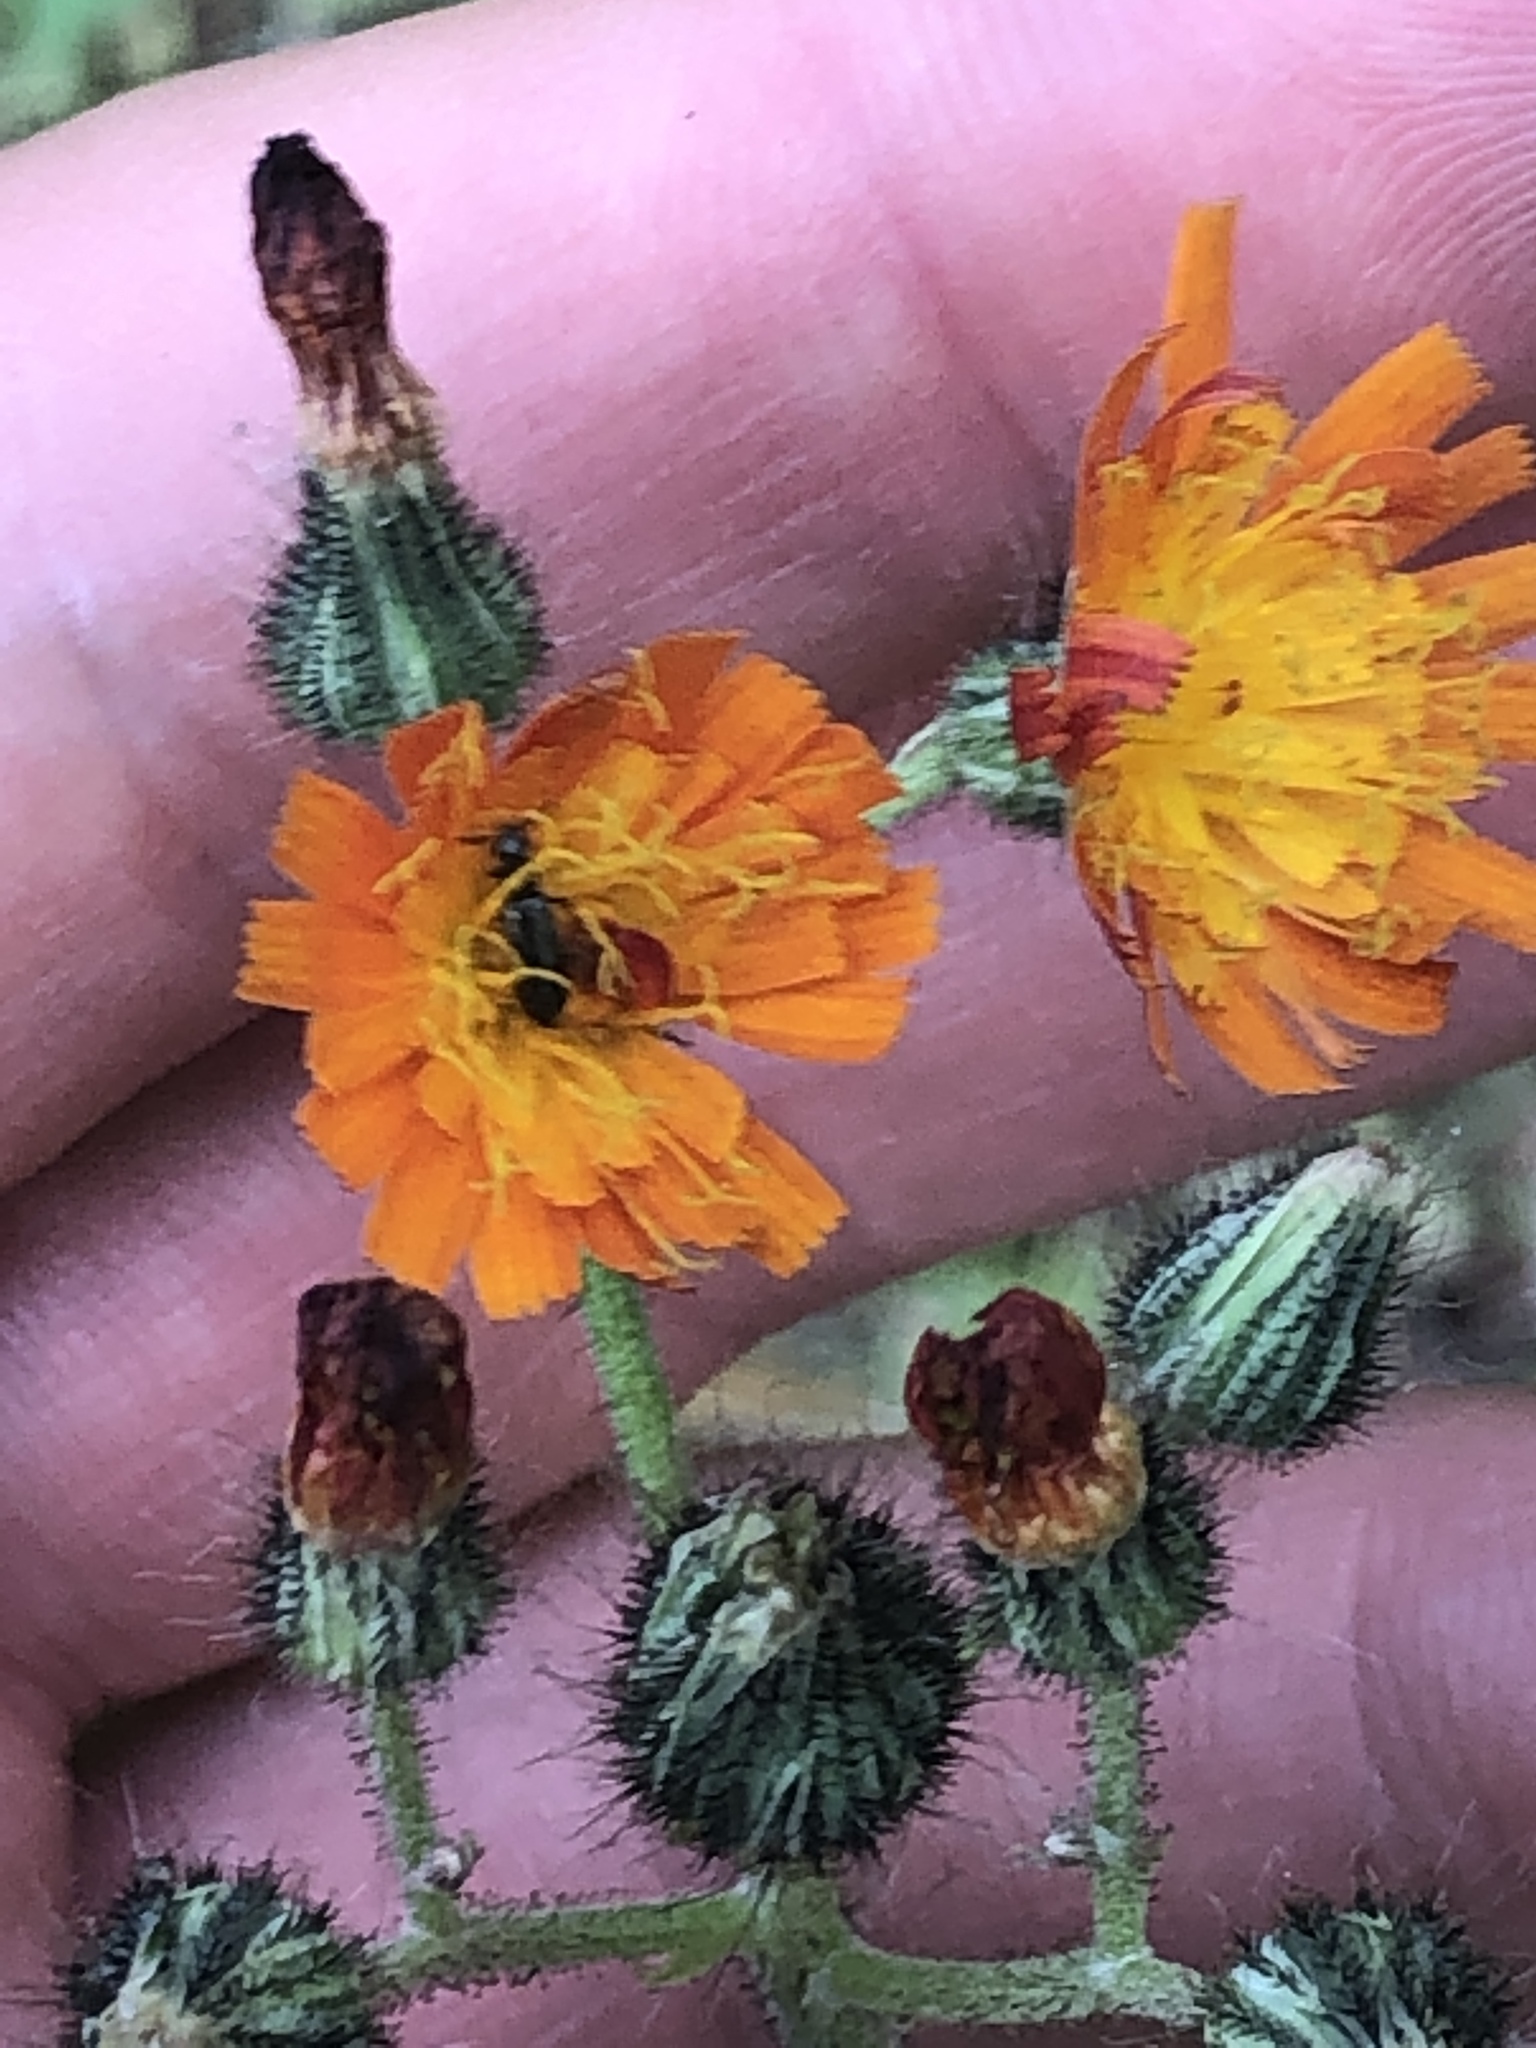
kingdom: Plantae
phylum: Tracheophyta
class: Magnoliopsida
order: Asterales
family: Asteraceae
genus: Pilosella
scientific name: Pilosella aurantiaca
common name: Fox-and-cubs
